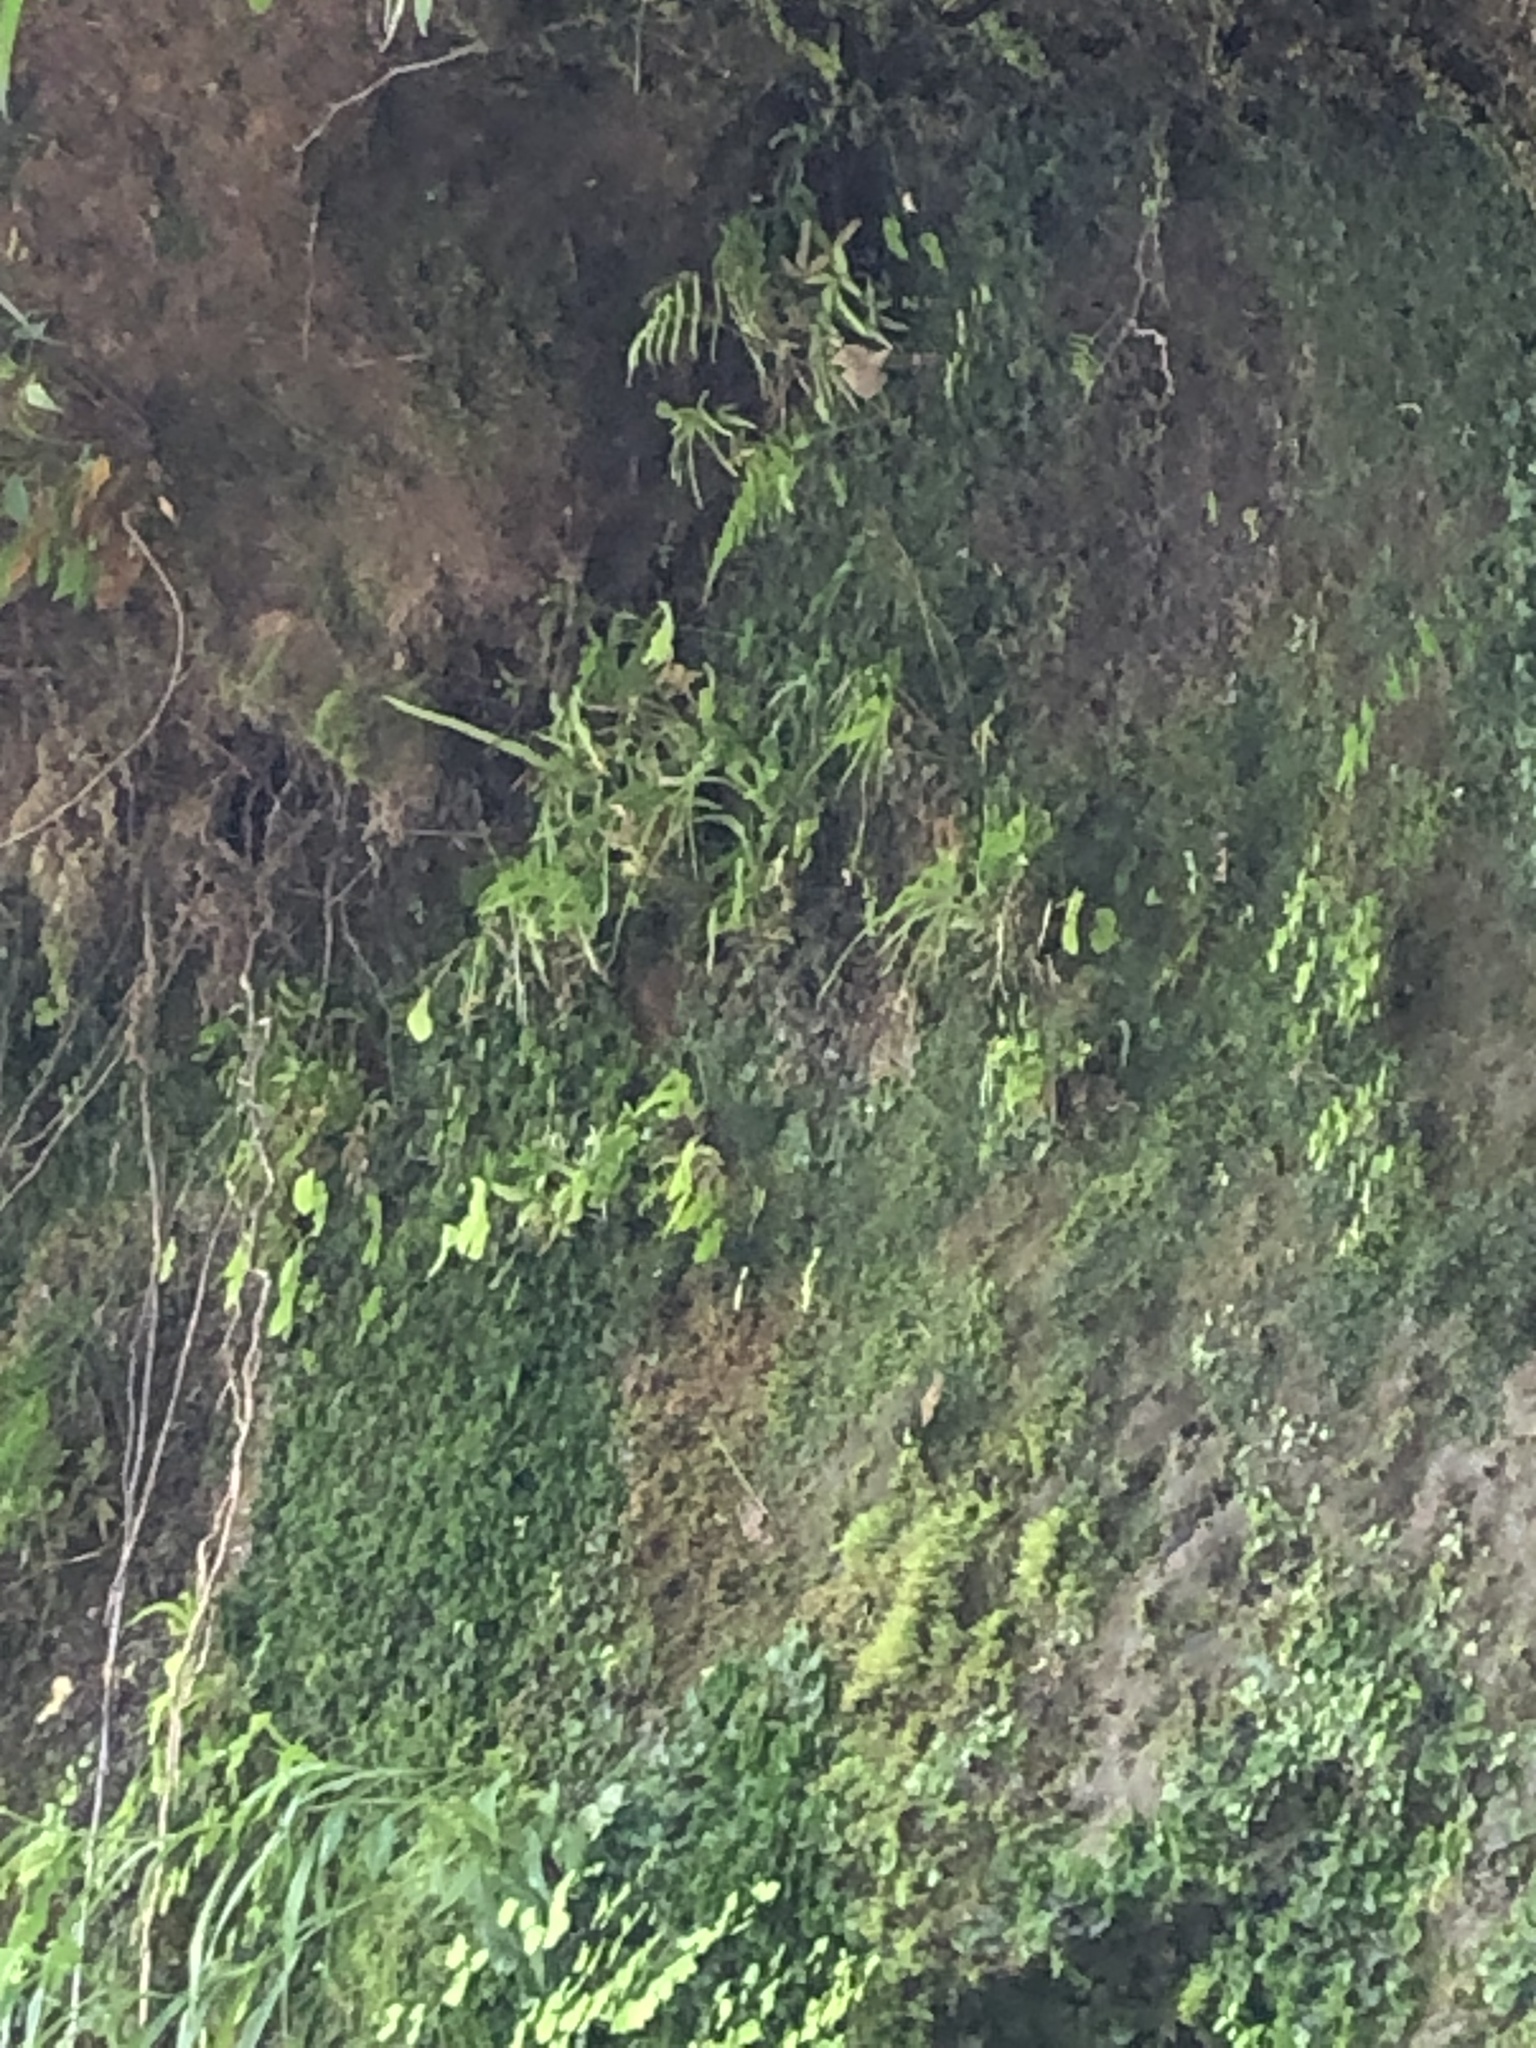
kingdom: Plantae
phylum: Tracheophyta
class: Polypodiopsida
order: Polypodiales
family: Pteridaceae
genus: Pteris
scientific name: Pteris multifida
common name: Spider brake
